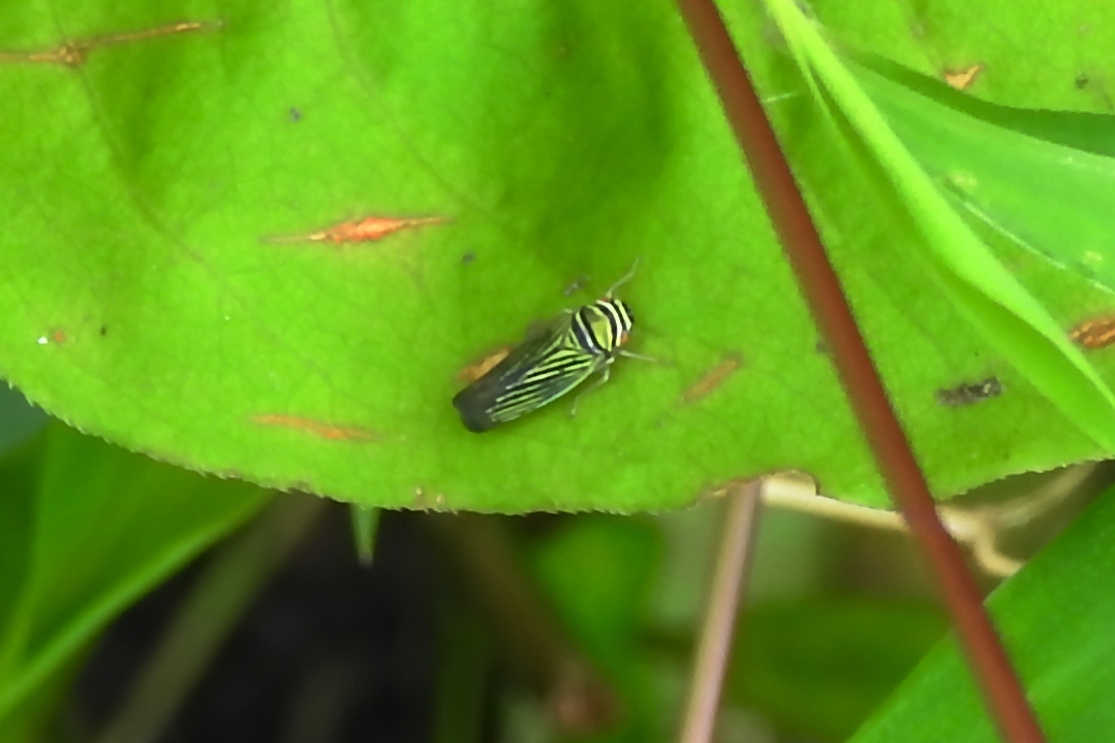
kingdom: Animalia
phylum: Arthropoda
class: Insecta
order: Hemiptera
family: Cicadellidae
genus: Tylozygus
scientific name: Tylozygus bifidus
